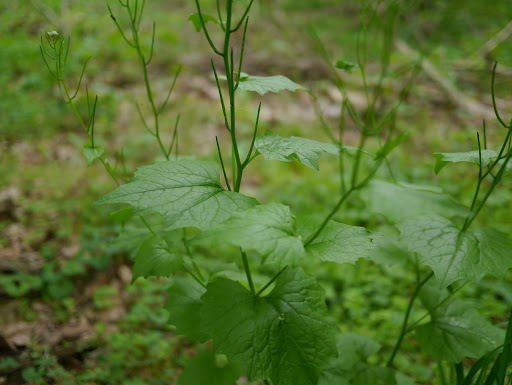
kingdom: Plantae
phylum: Tracheophyta
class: Magnoliopsida
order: Brassicales
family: Brassicaceae
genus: Alliaria
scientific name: Alliaria petiolata
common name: Garlic mustard
